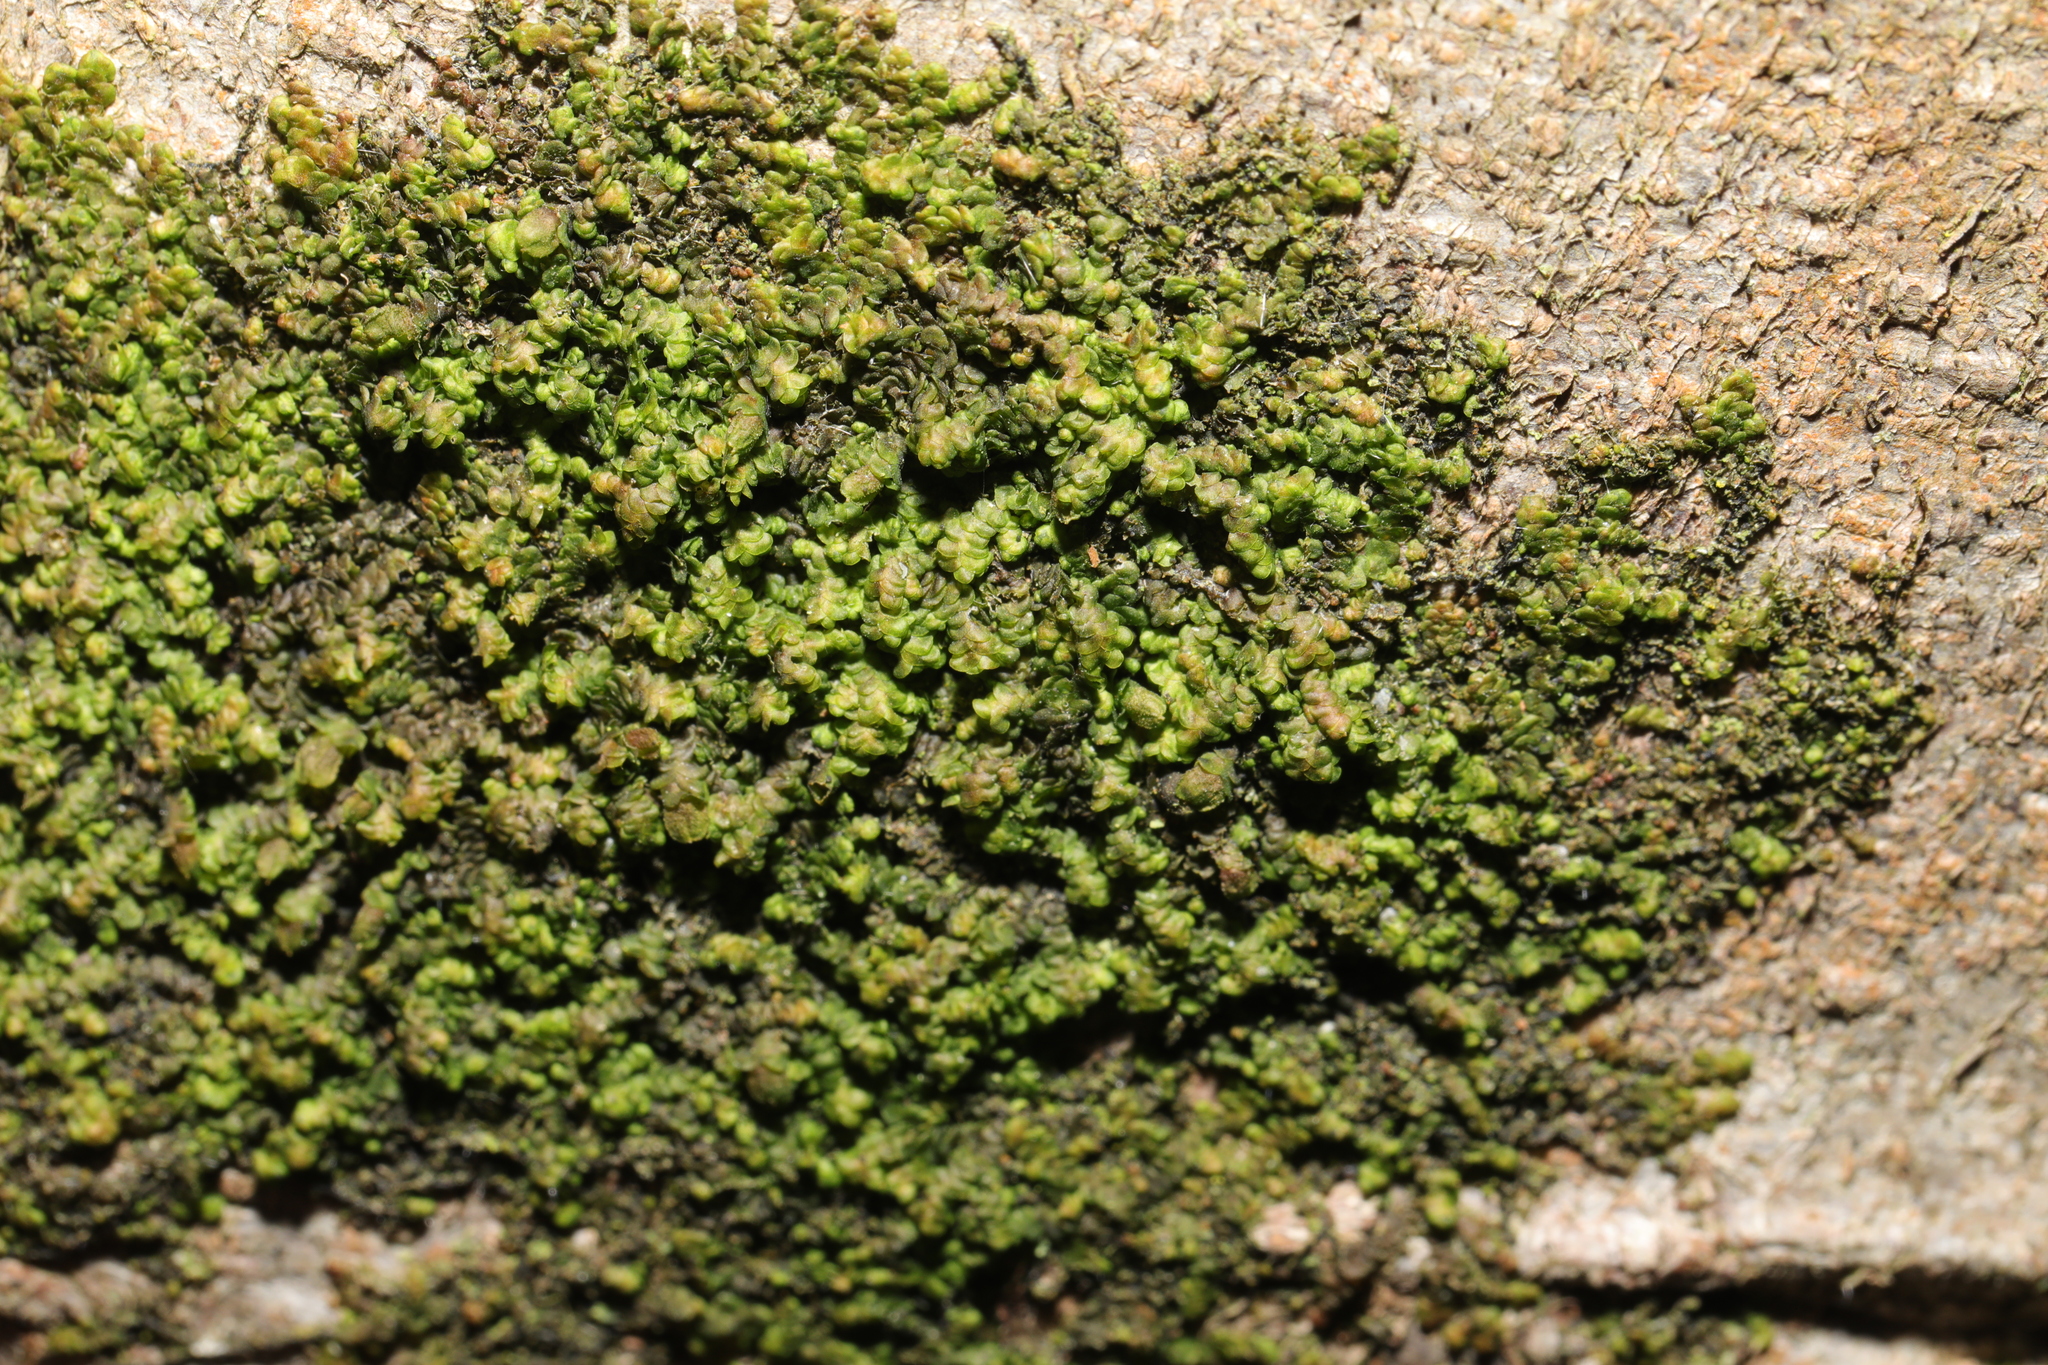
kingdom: Plantae
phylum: Marchantiophyta
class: Jungermanniopsida
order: Porellales
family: Frullaniaceae
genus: Frullania
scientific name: Frullania dilatata
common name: Dilated scalewort
